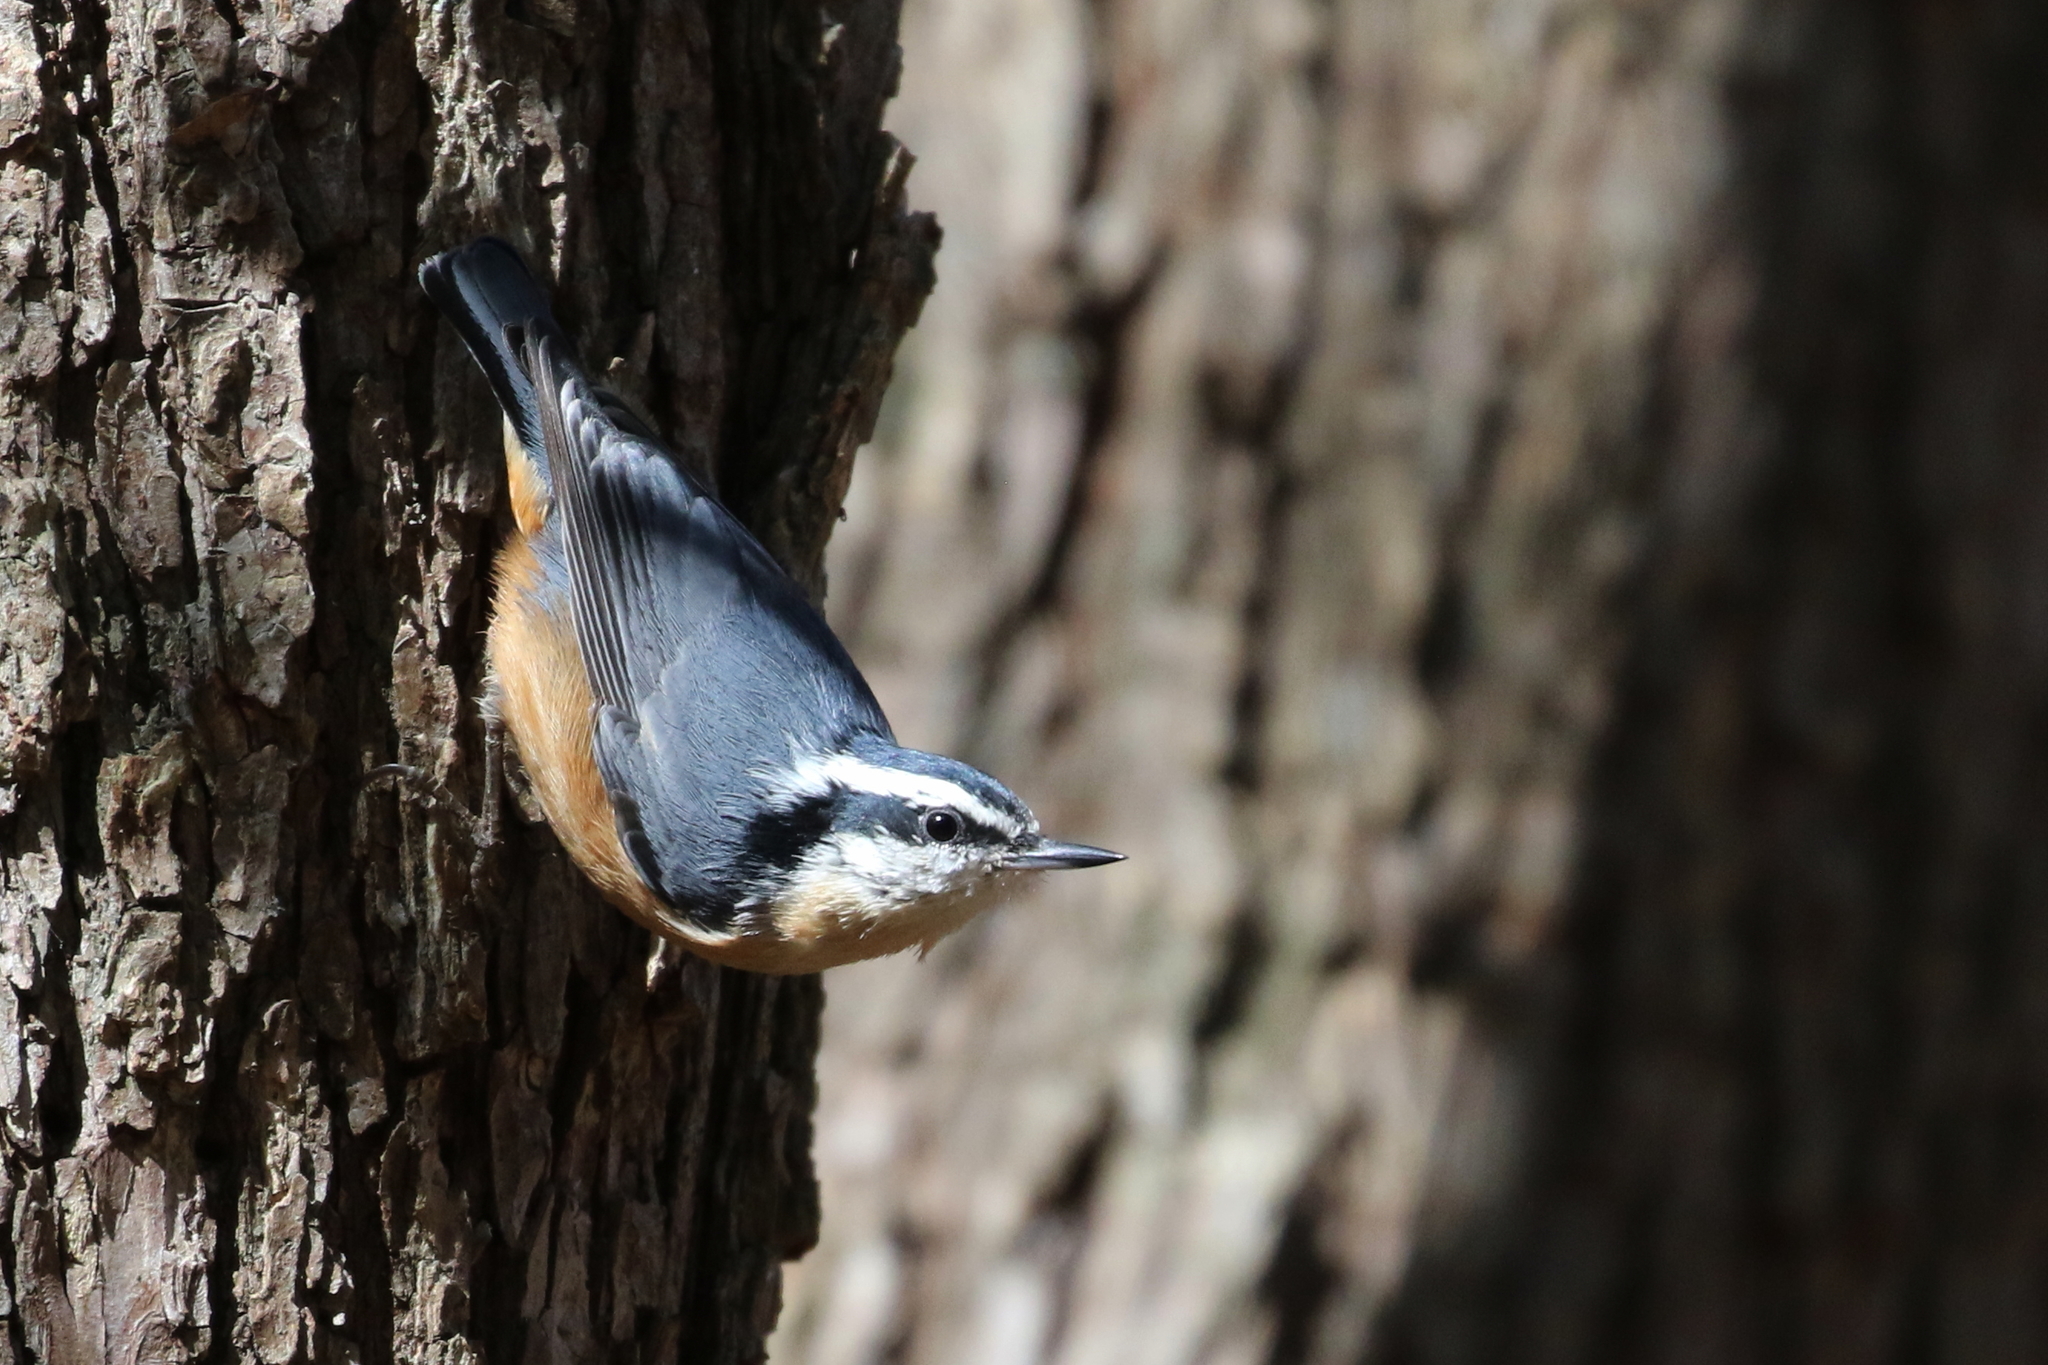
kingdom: Animalia
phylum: Chordata
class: Aves
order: Passeriformes
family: Sittidae
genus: Sitta
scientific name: Sitta canadensis
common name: Red-breasted nuthatch
